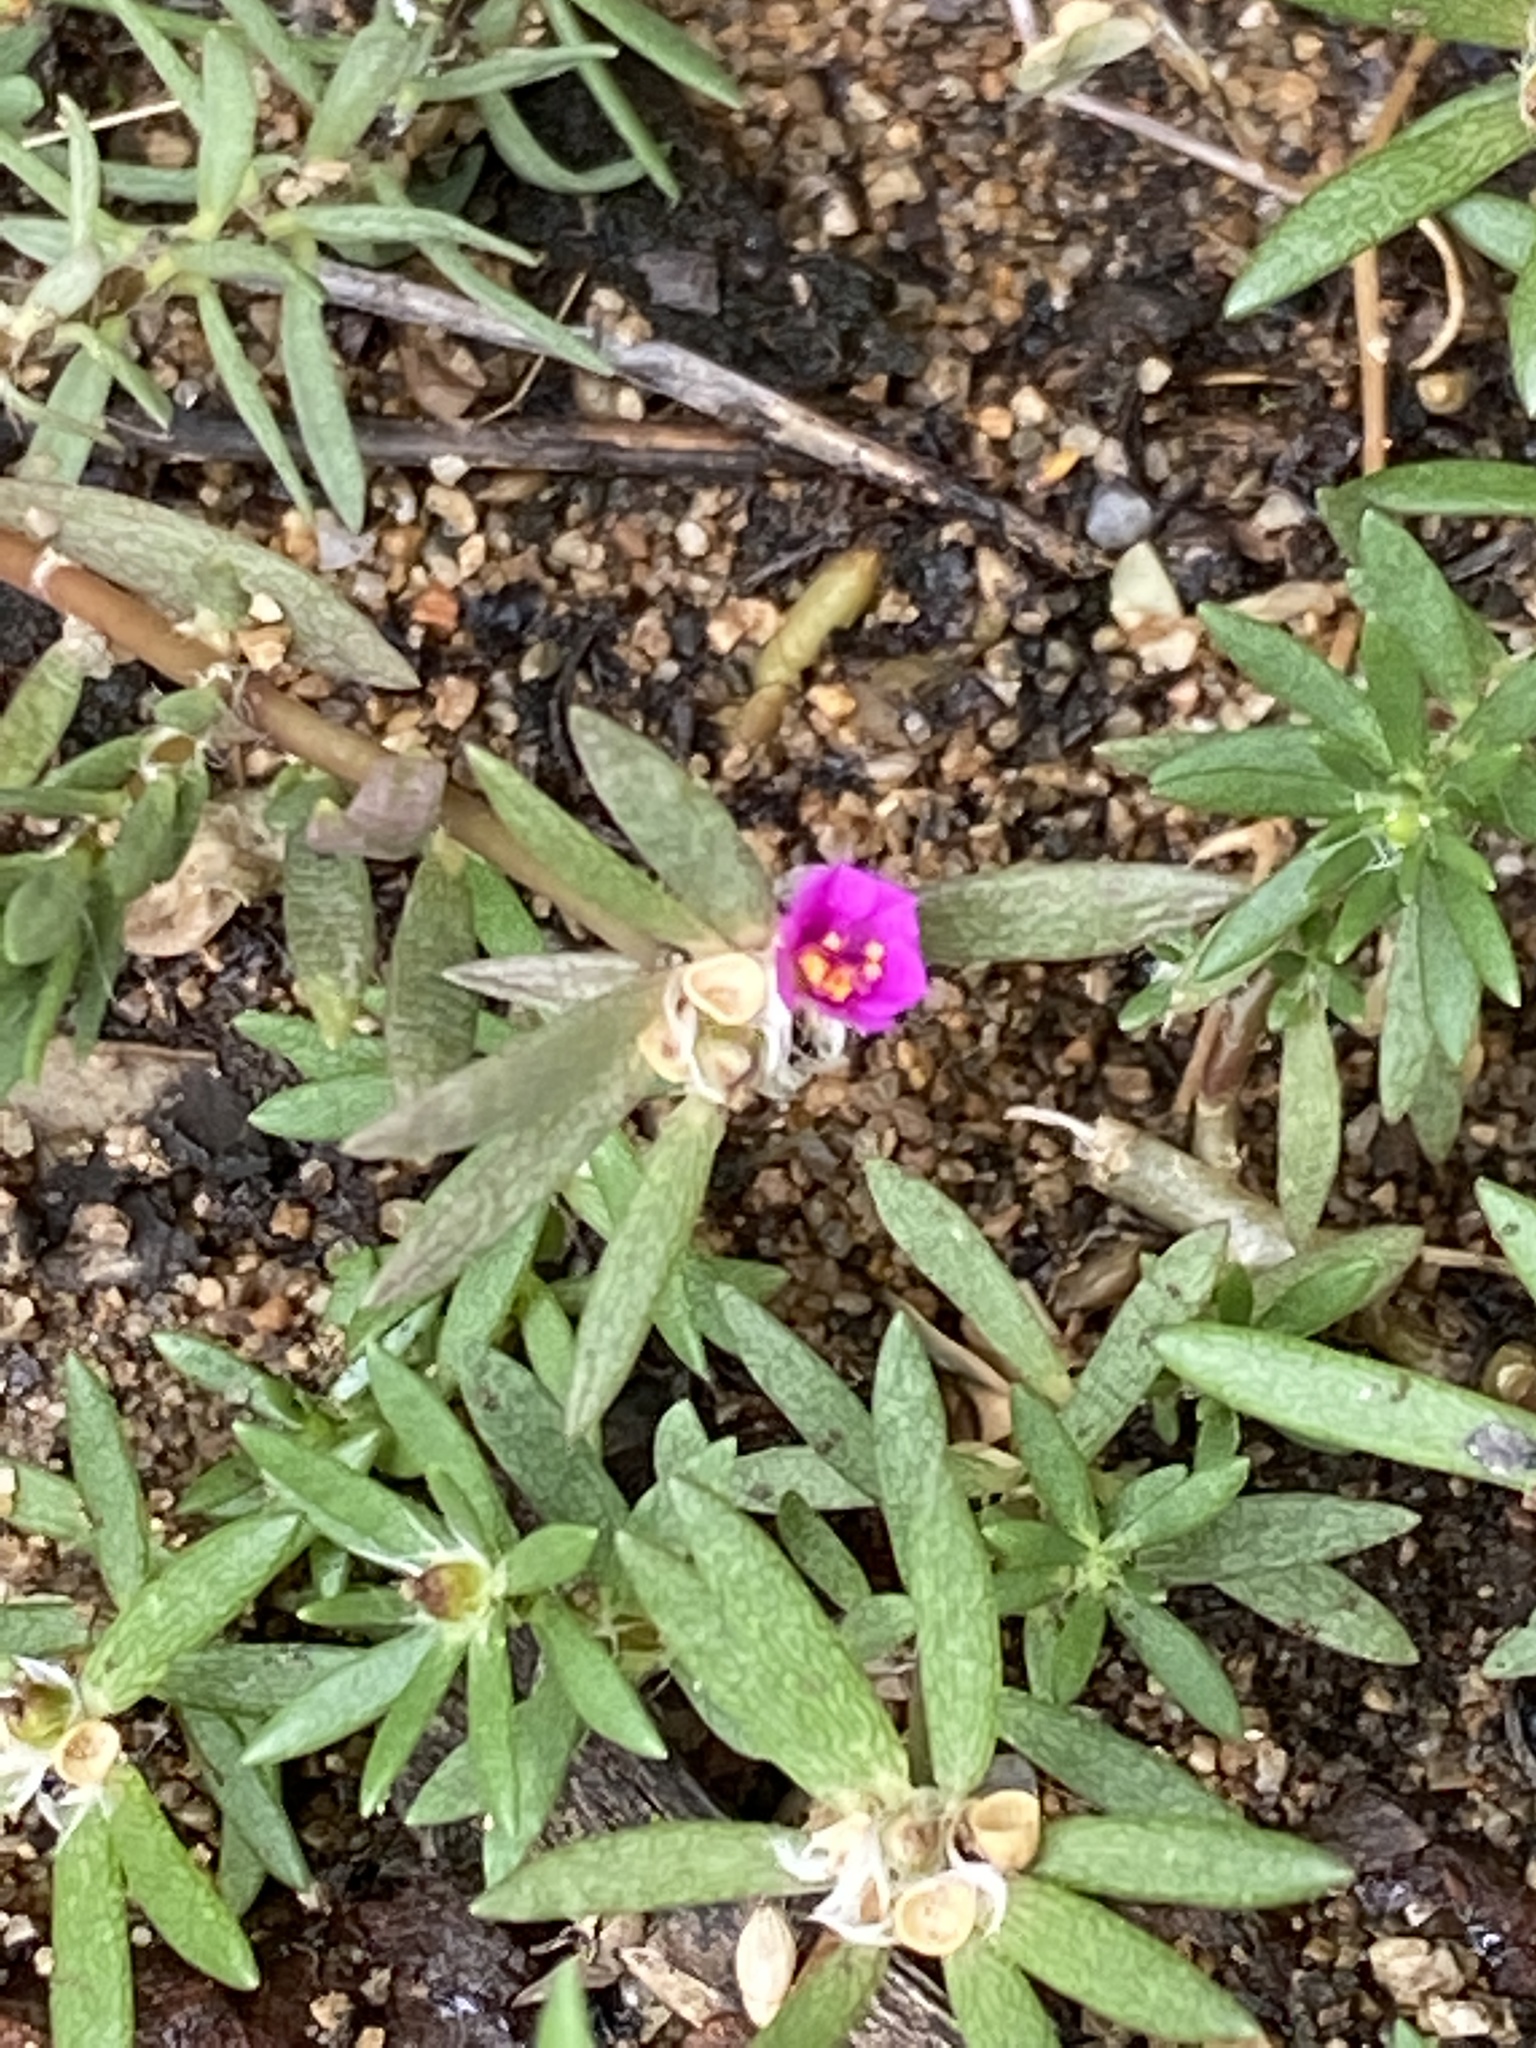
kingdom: Plantae
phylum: Tracheophyta
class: Magnoliopsida
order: Caryophyllales
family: Portulacaceae
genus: Portulaca
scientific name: Portulaca pilosa
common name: Kiss me quick
